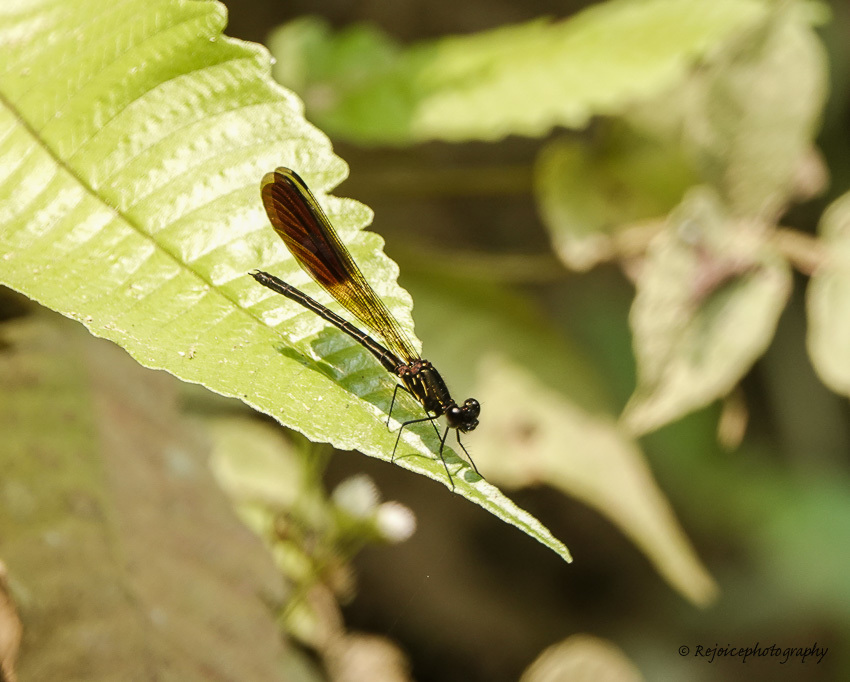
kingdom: Animalia
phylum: Arthropoda
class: Insecta
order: Odonata
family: Chlorocyphidae
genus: Rhinocypha
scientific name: Rhinocypha unimaculata
